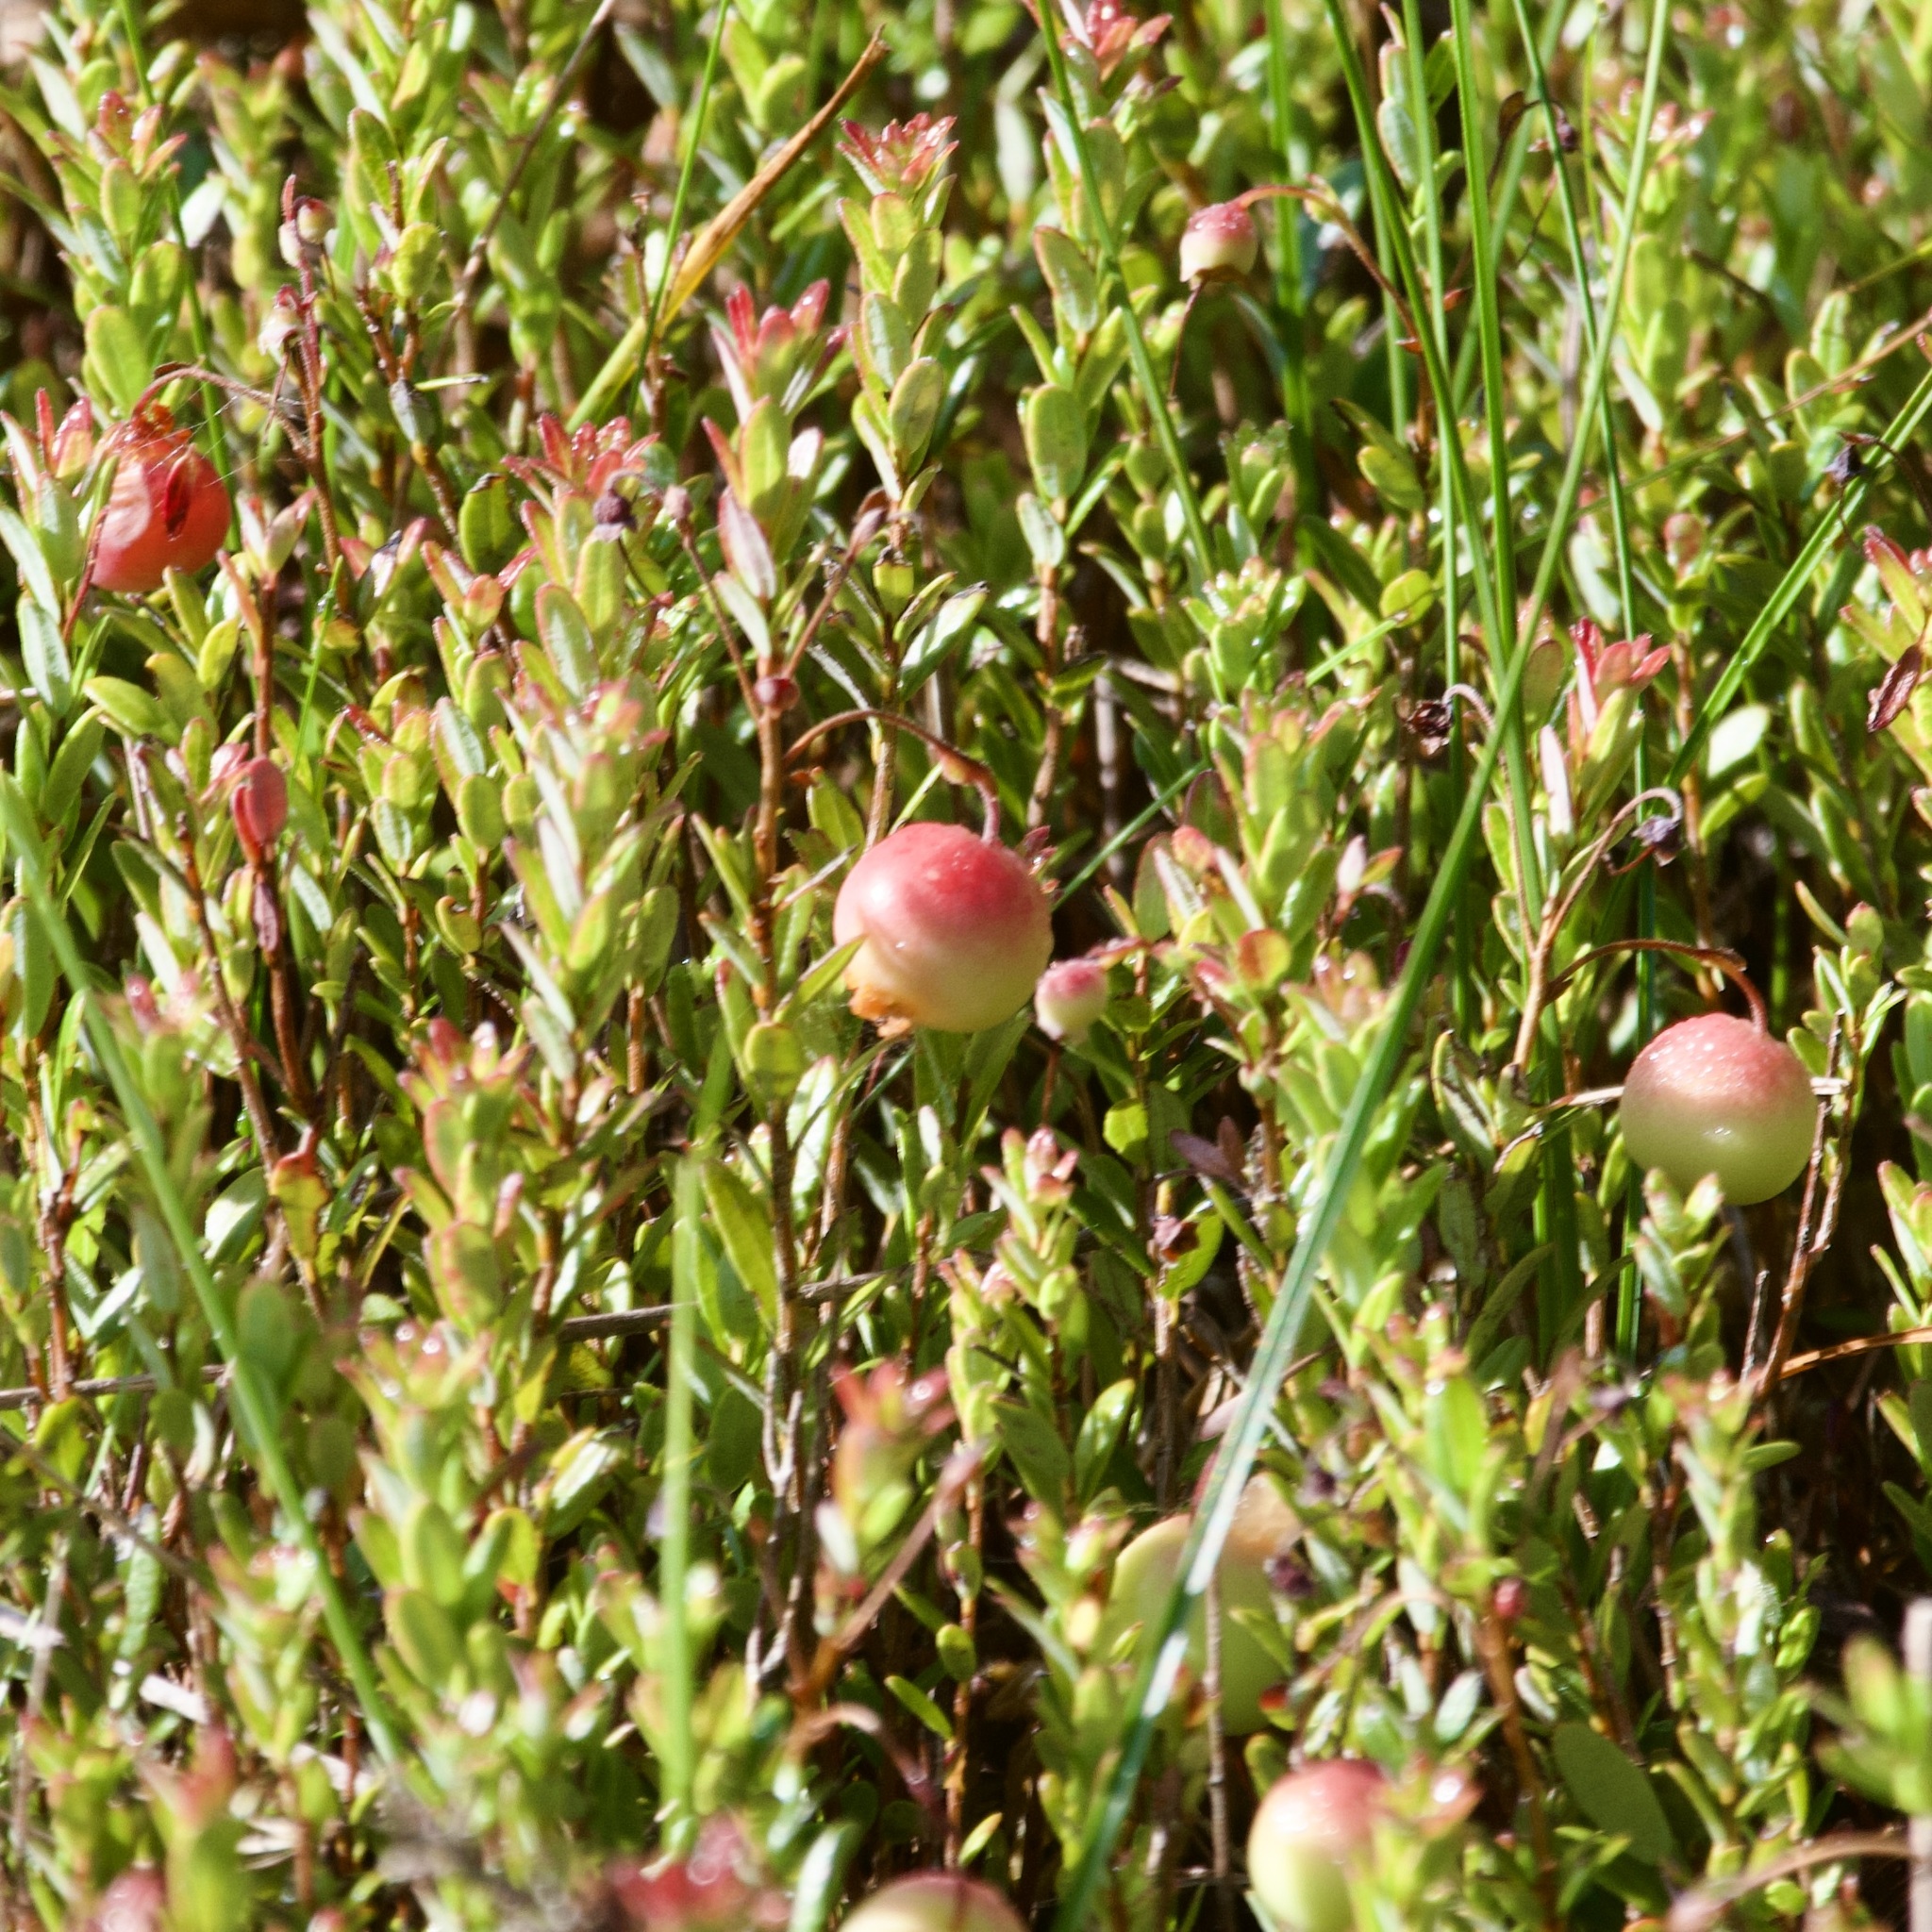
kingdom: Plantae
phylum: Tracheophyta
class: Magnoliopsida
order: Ericales
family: Ericaceae
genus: Vaccinium
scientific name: Vaccinium macrocarpon
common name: American cranberry
